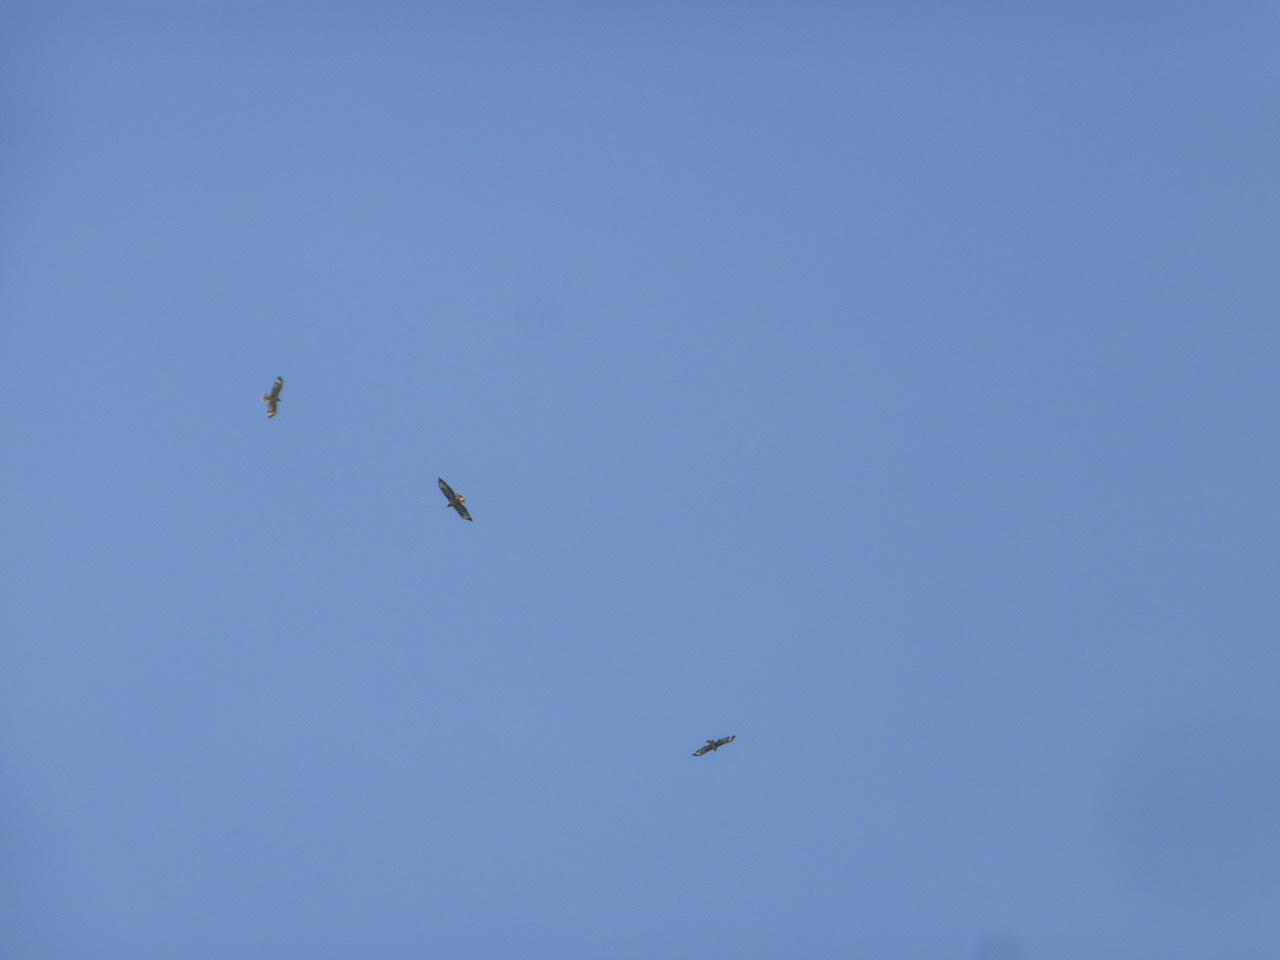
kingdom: Animalia
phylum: Chordata
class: Aves
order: Accipitriformes
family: Accipitridae
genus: Buteo
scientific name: Buteo buteo
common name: Common buzzard
